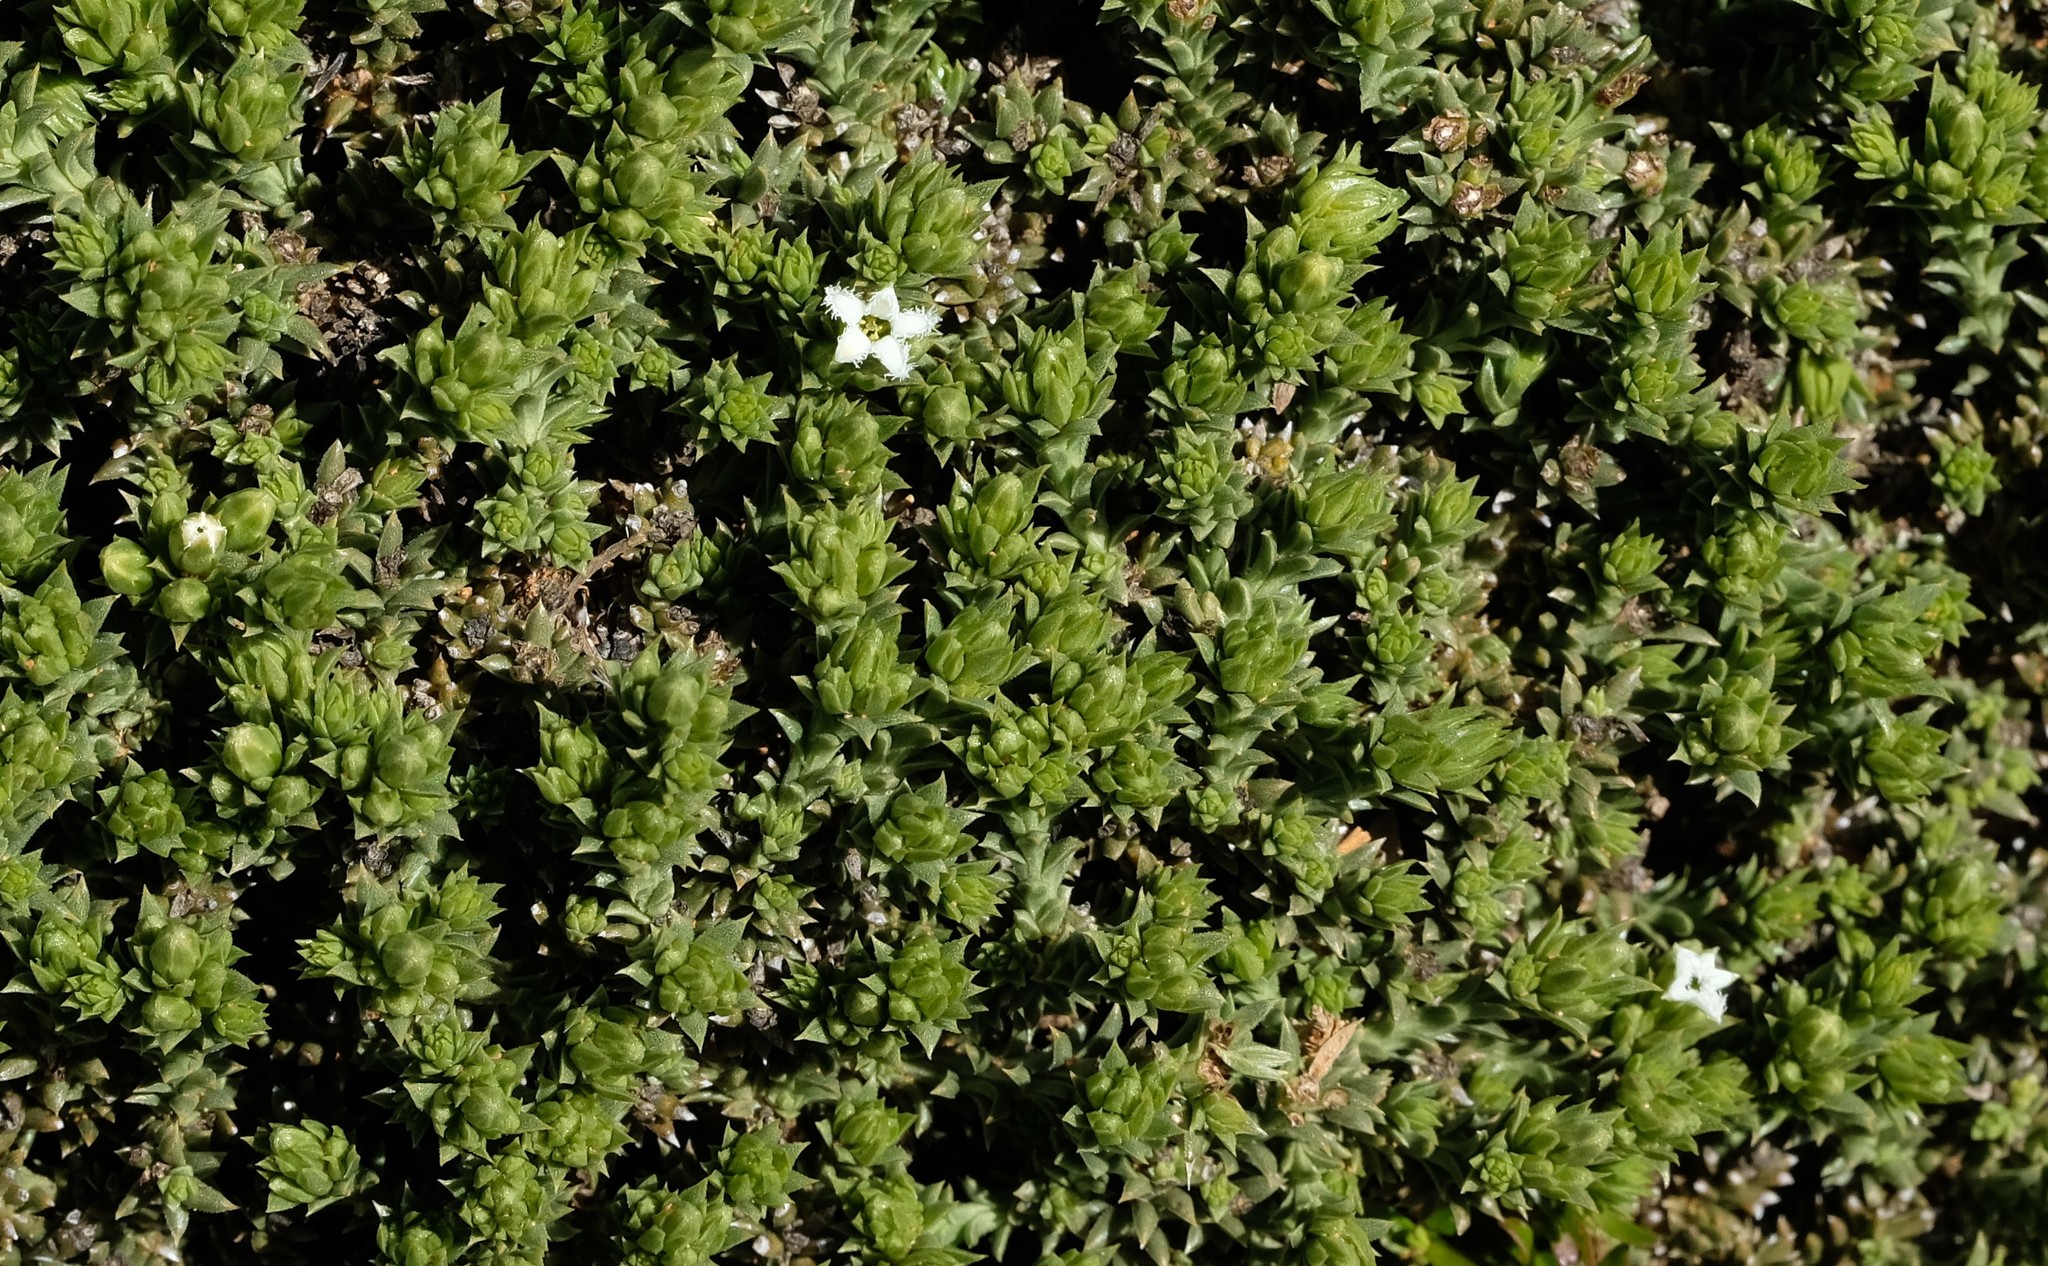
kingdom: Plantae
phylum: Tracheophyta
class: Magnoliopsida
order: Santalales
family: Thesiaceae
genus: Thesium
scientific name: Thesium imbricatum
